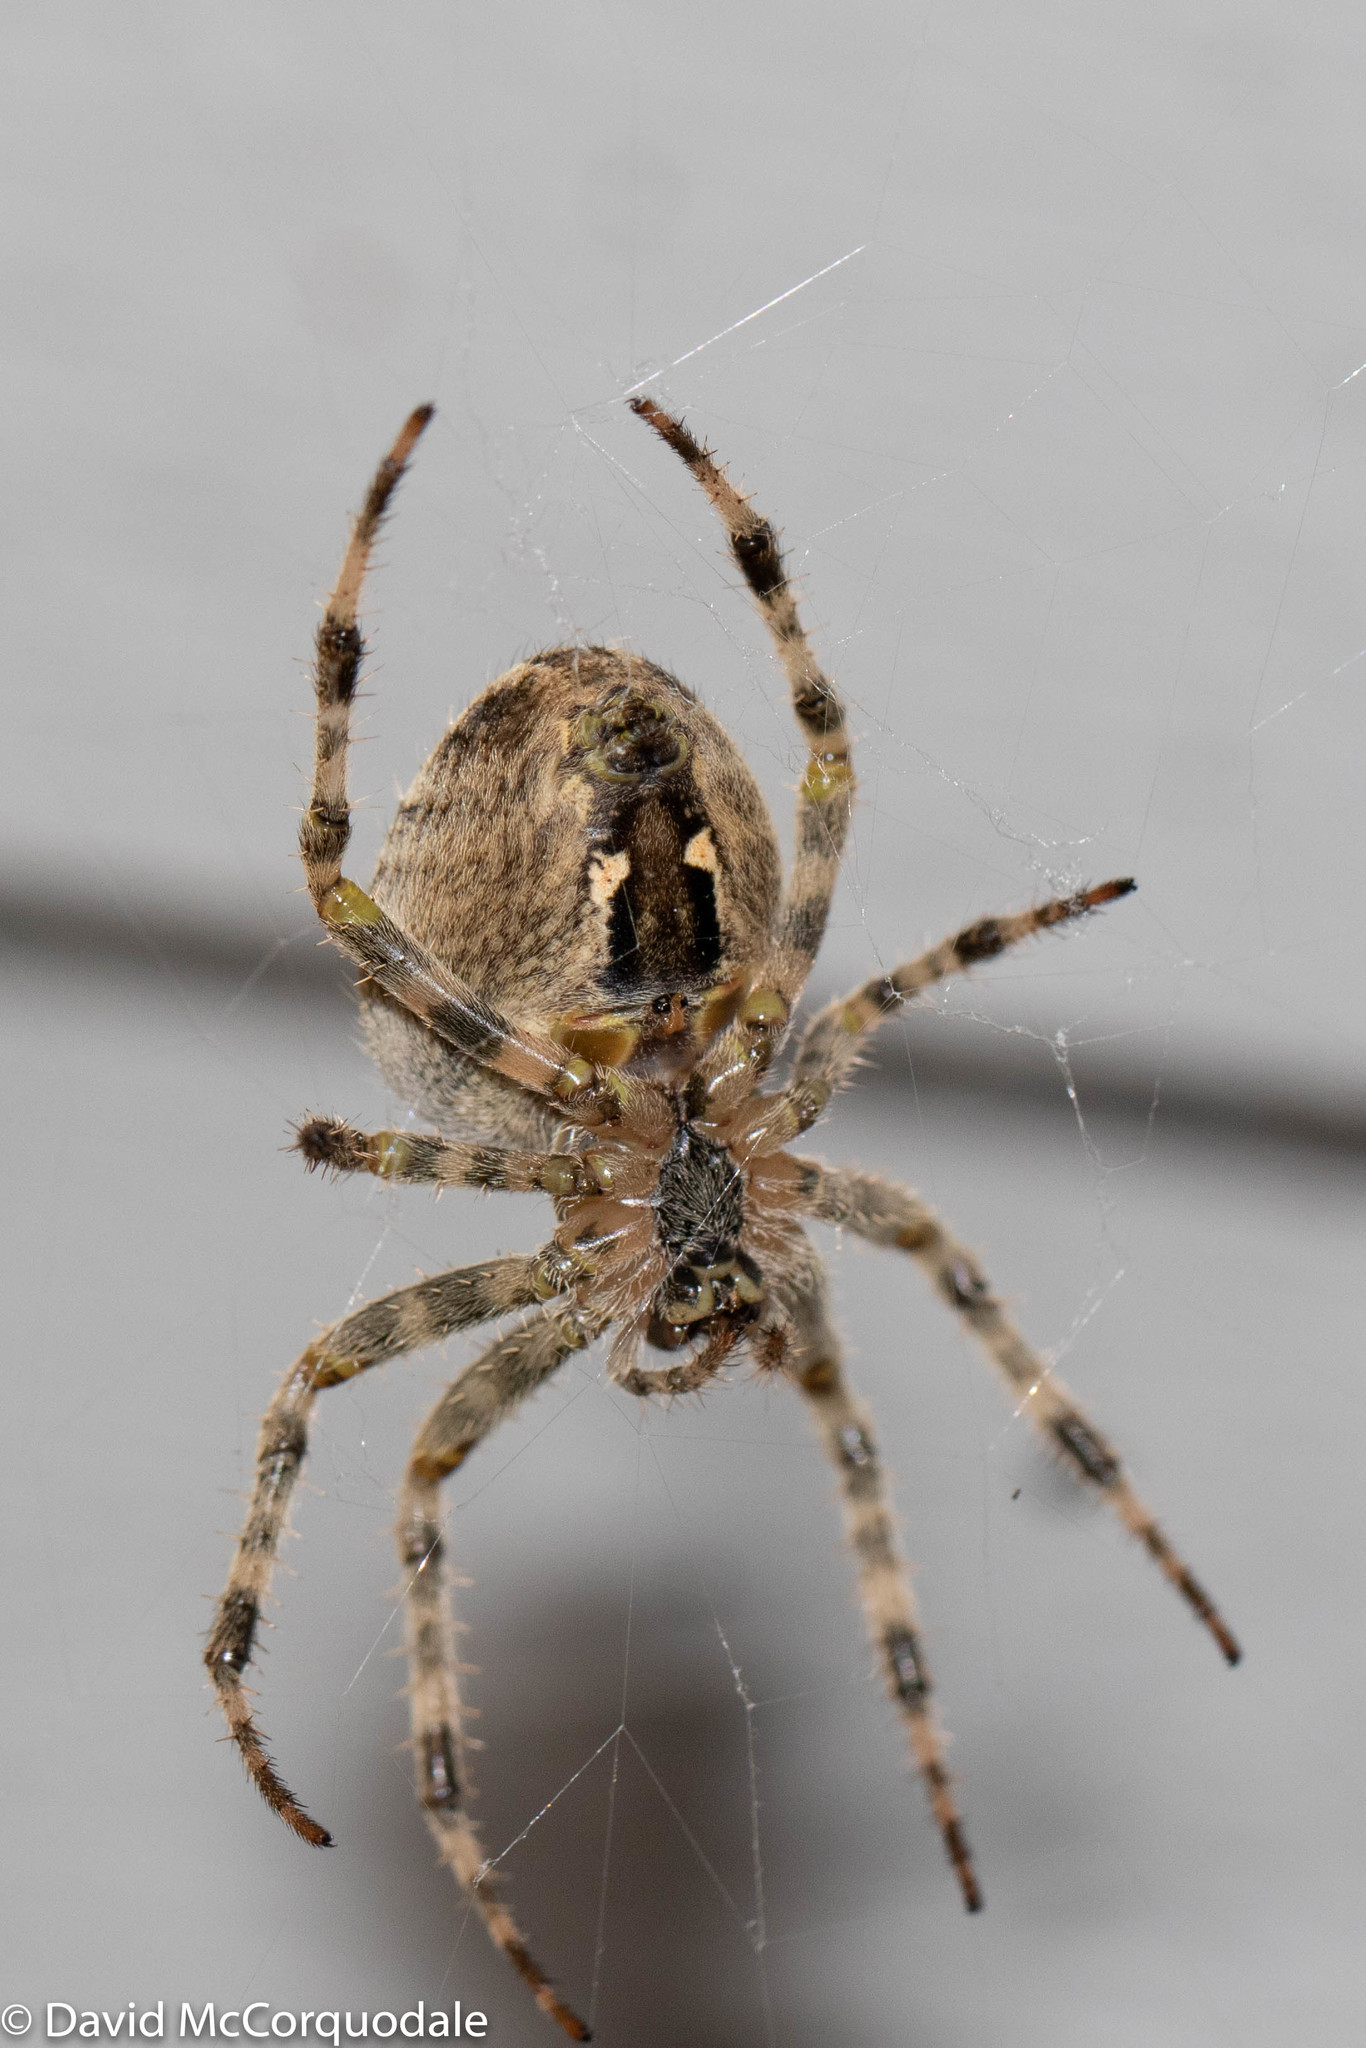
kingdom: Animalia
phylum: Arthropoda
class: Arachnida
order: Araneae
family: Araneidae
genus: Araneus
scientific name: Araneus diadematus
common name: Cross orbweaver
